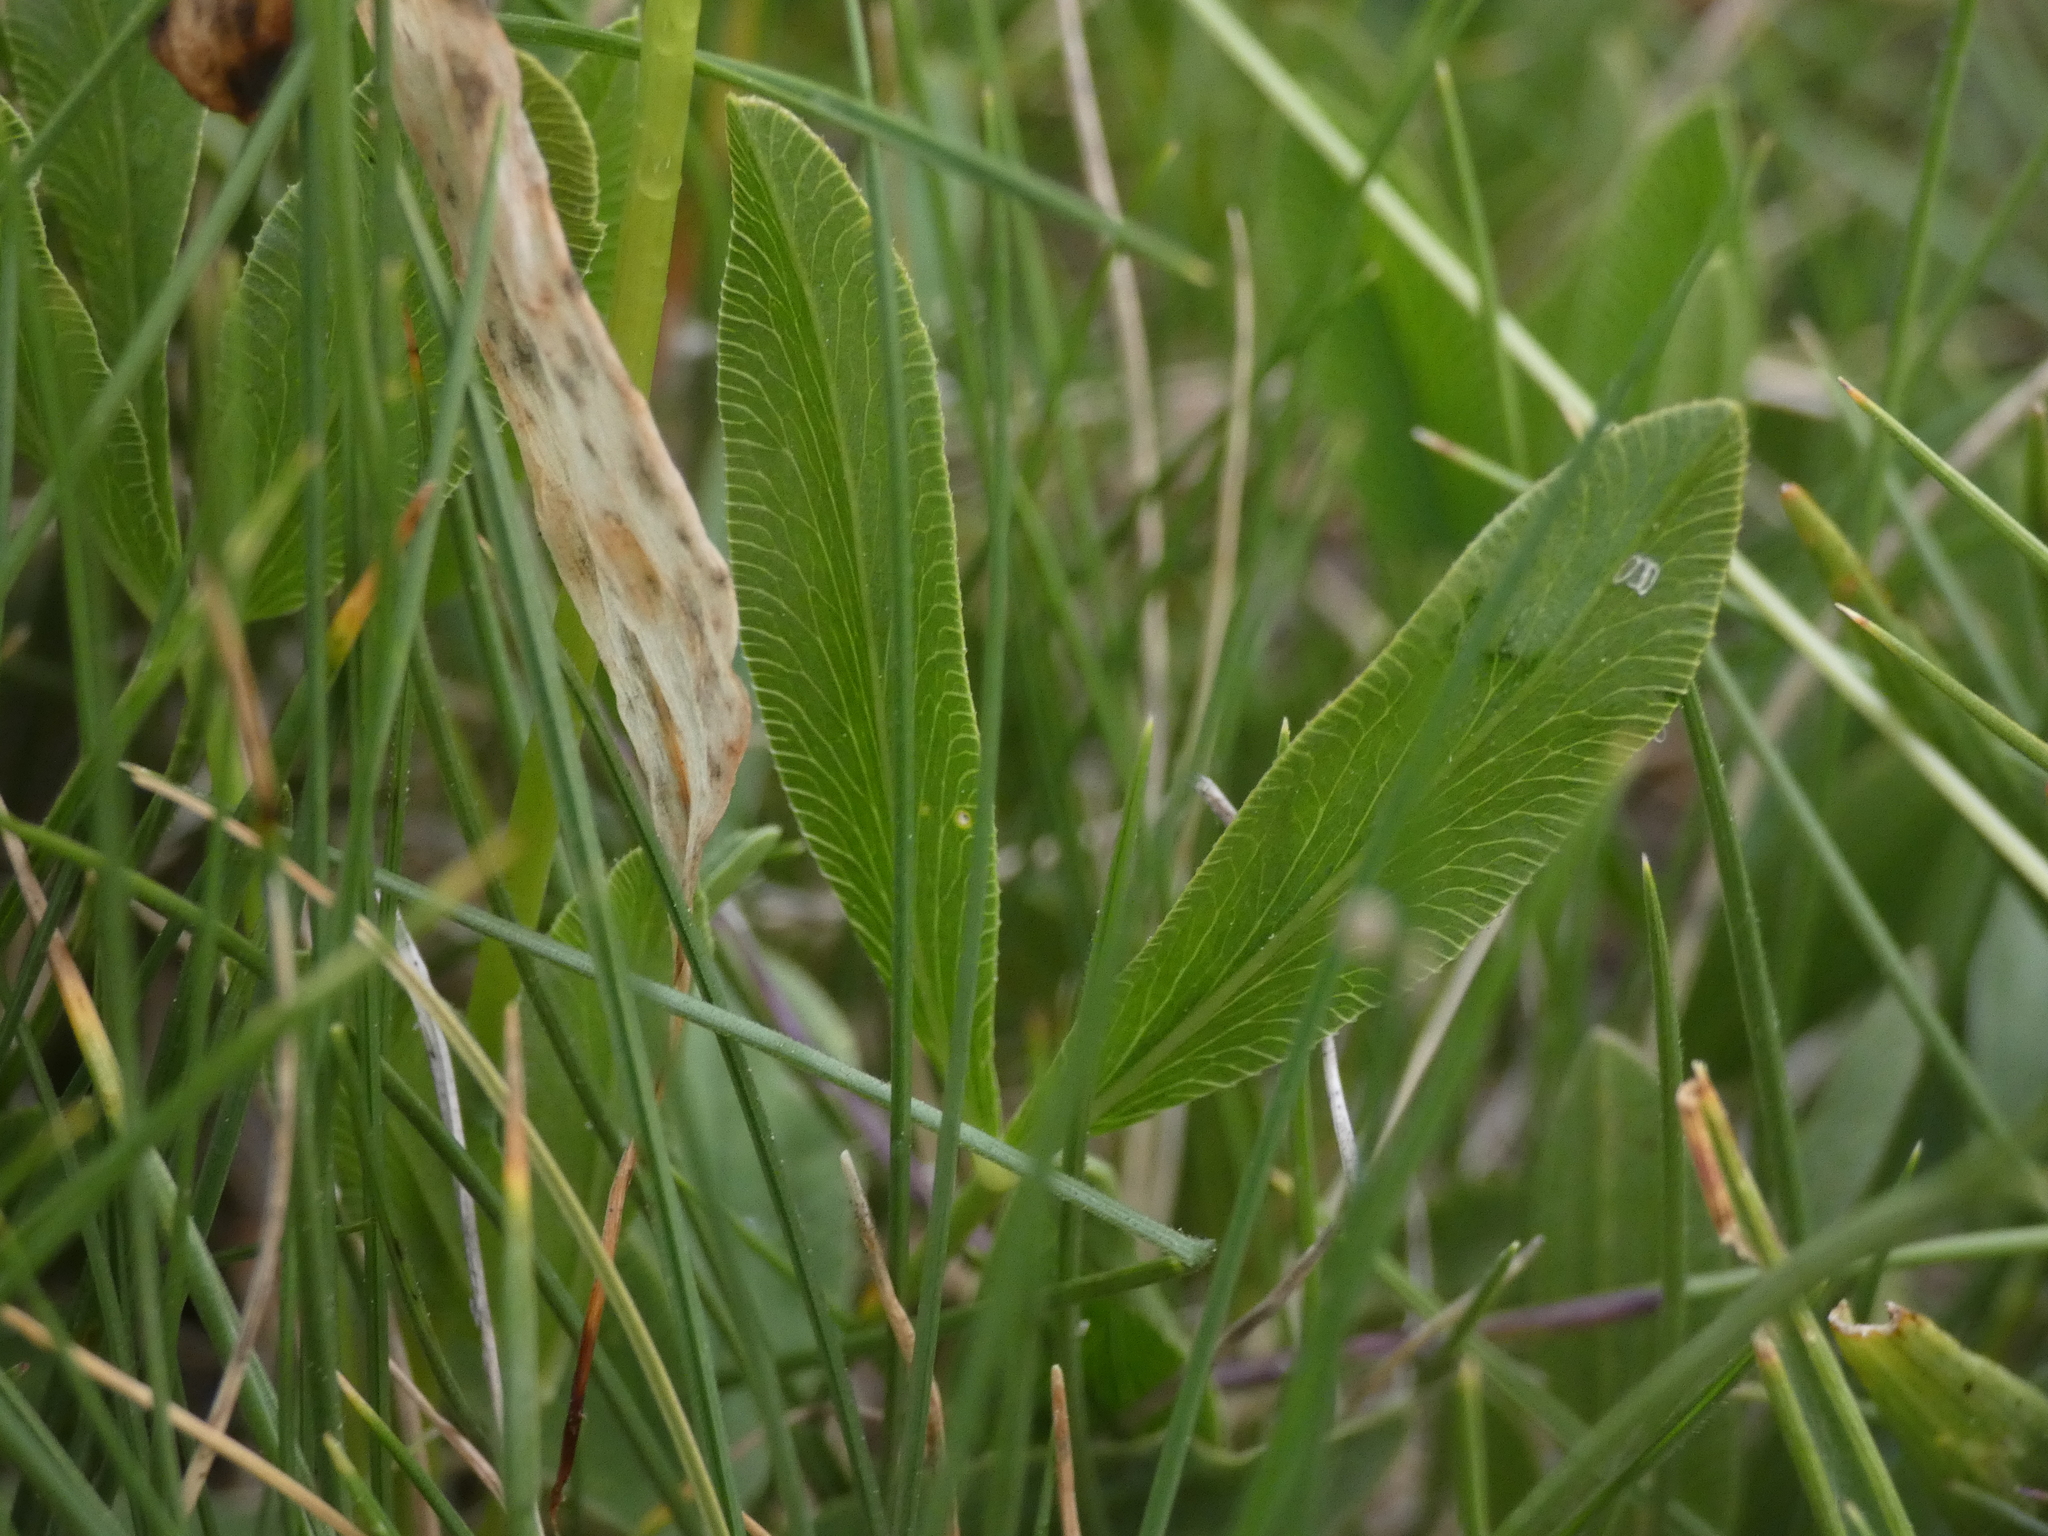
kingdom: Plantae
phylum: Tracheophyta
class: Magnoliopsida
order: Fabales
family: Fabaceae
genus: Trifolium
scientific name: Trifolium alpinum
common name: Alpine clover
